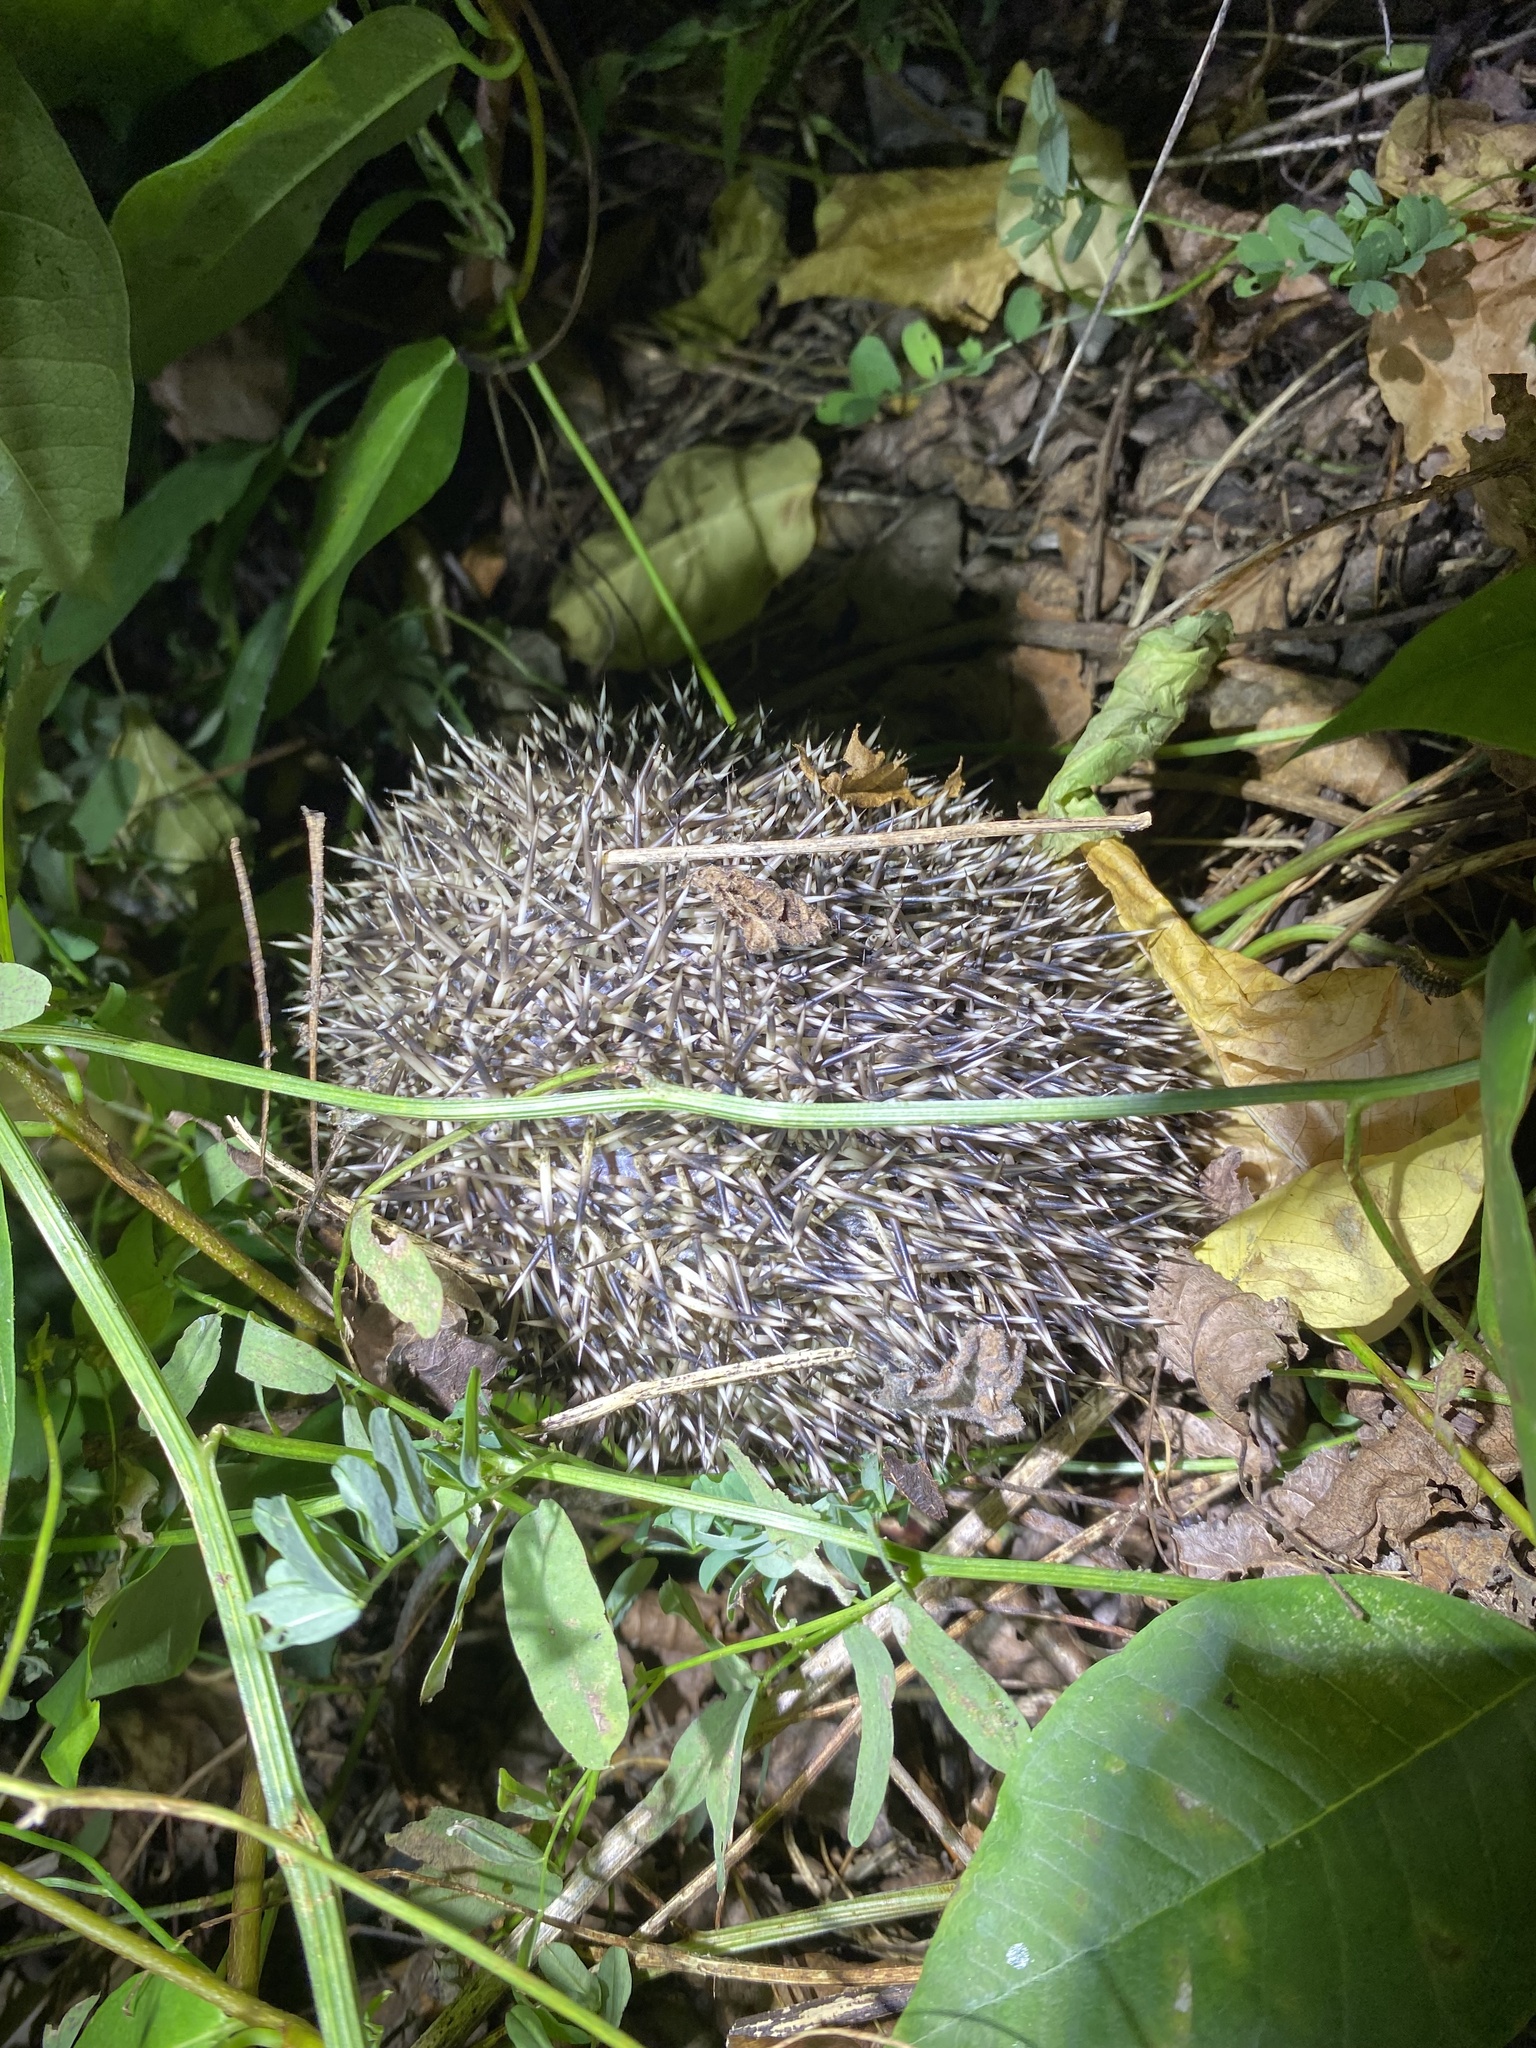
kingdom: Animalia
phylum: Chordata
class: Mammalia
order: Erinaceomorpha
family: Erinaceidae
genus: Erinaceus
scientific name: Erinaceus roumanicus
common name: Northern white-breasted hedgehog
